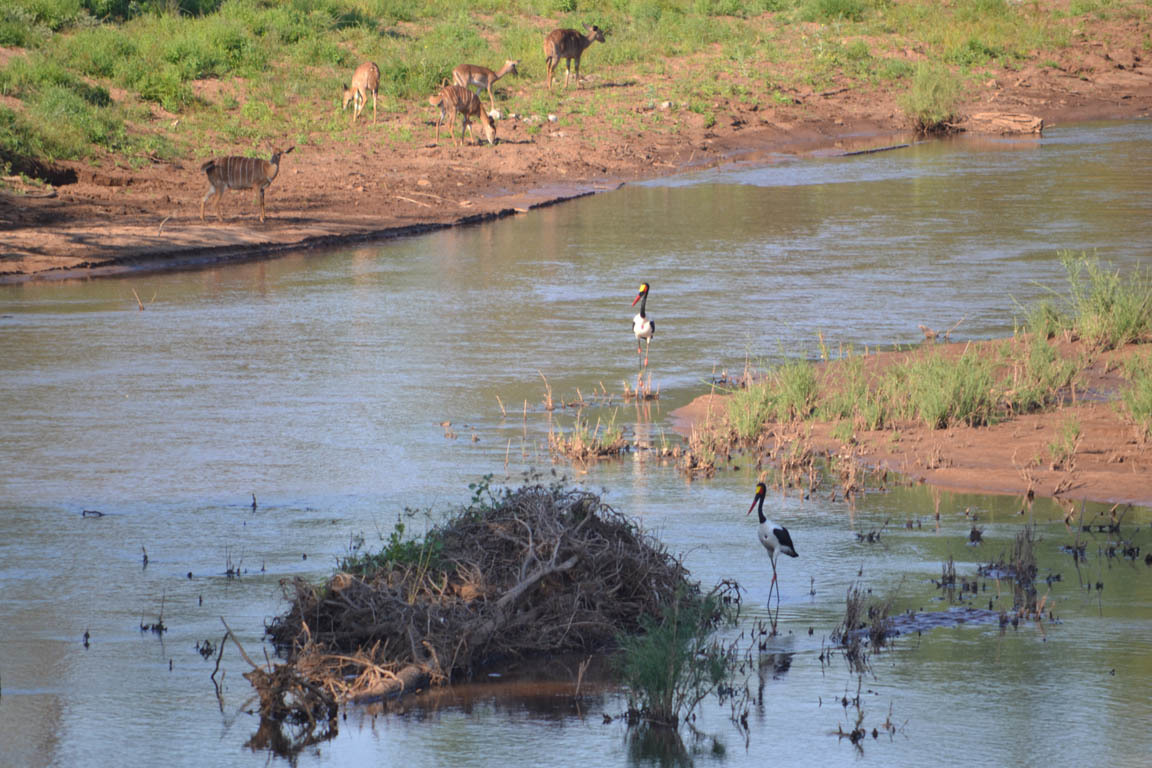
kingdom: Animalia
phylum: Chordata
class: Aves
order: Ciconiiformes
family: Ciconiidae
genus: Ephippiorhynchus
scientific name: Ephippiorhynchus senegalensis
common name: Saddle-billed stork
